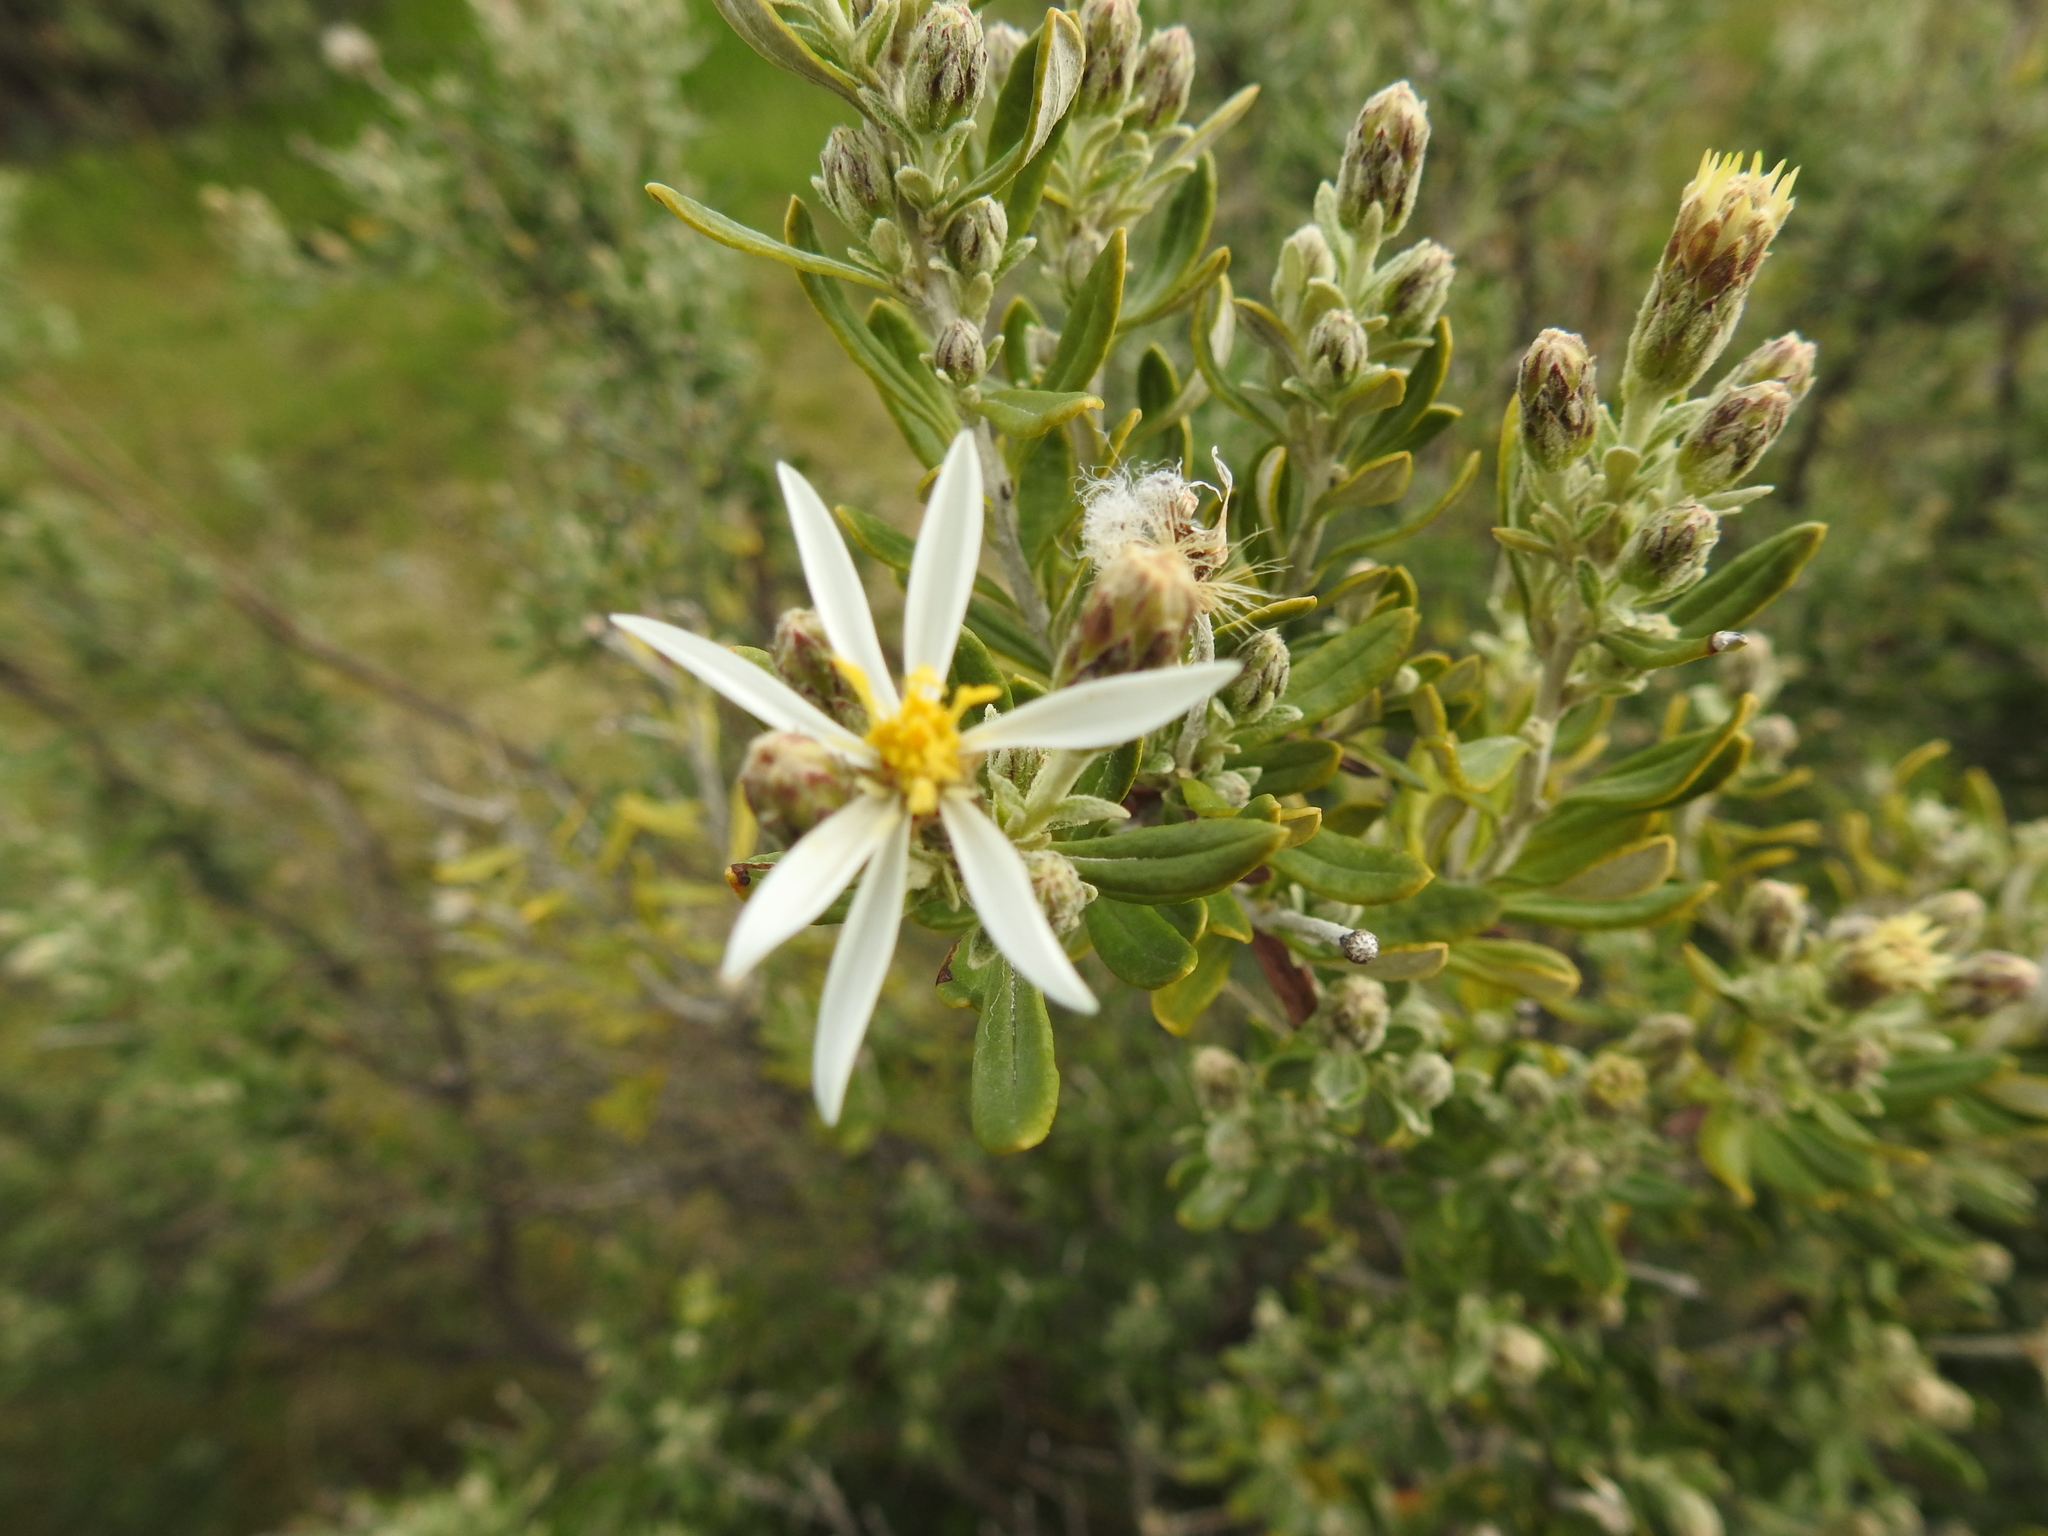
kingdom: Plantae
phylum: Tracheophyta
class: Magnoliopsida
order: Asterales
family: Asteraceae
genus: Chiliotrichum
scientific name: Chiliotrichum diffusum
